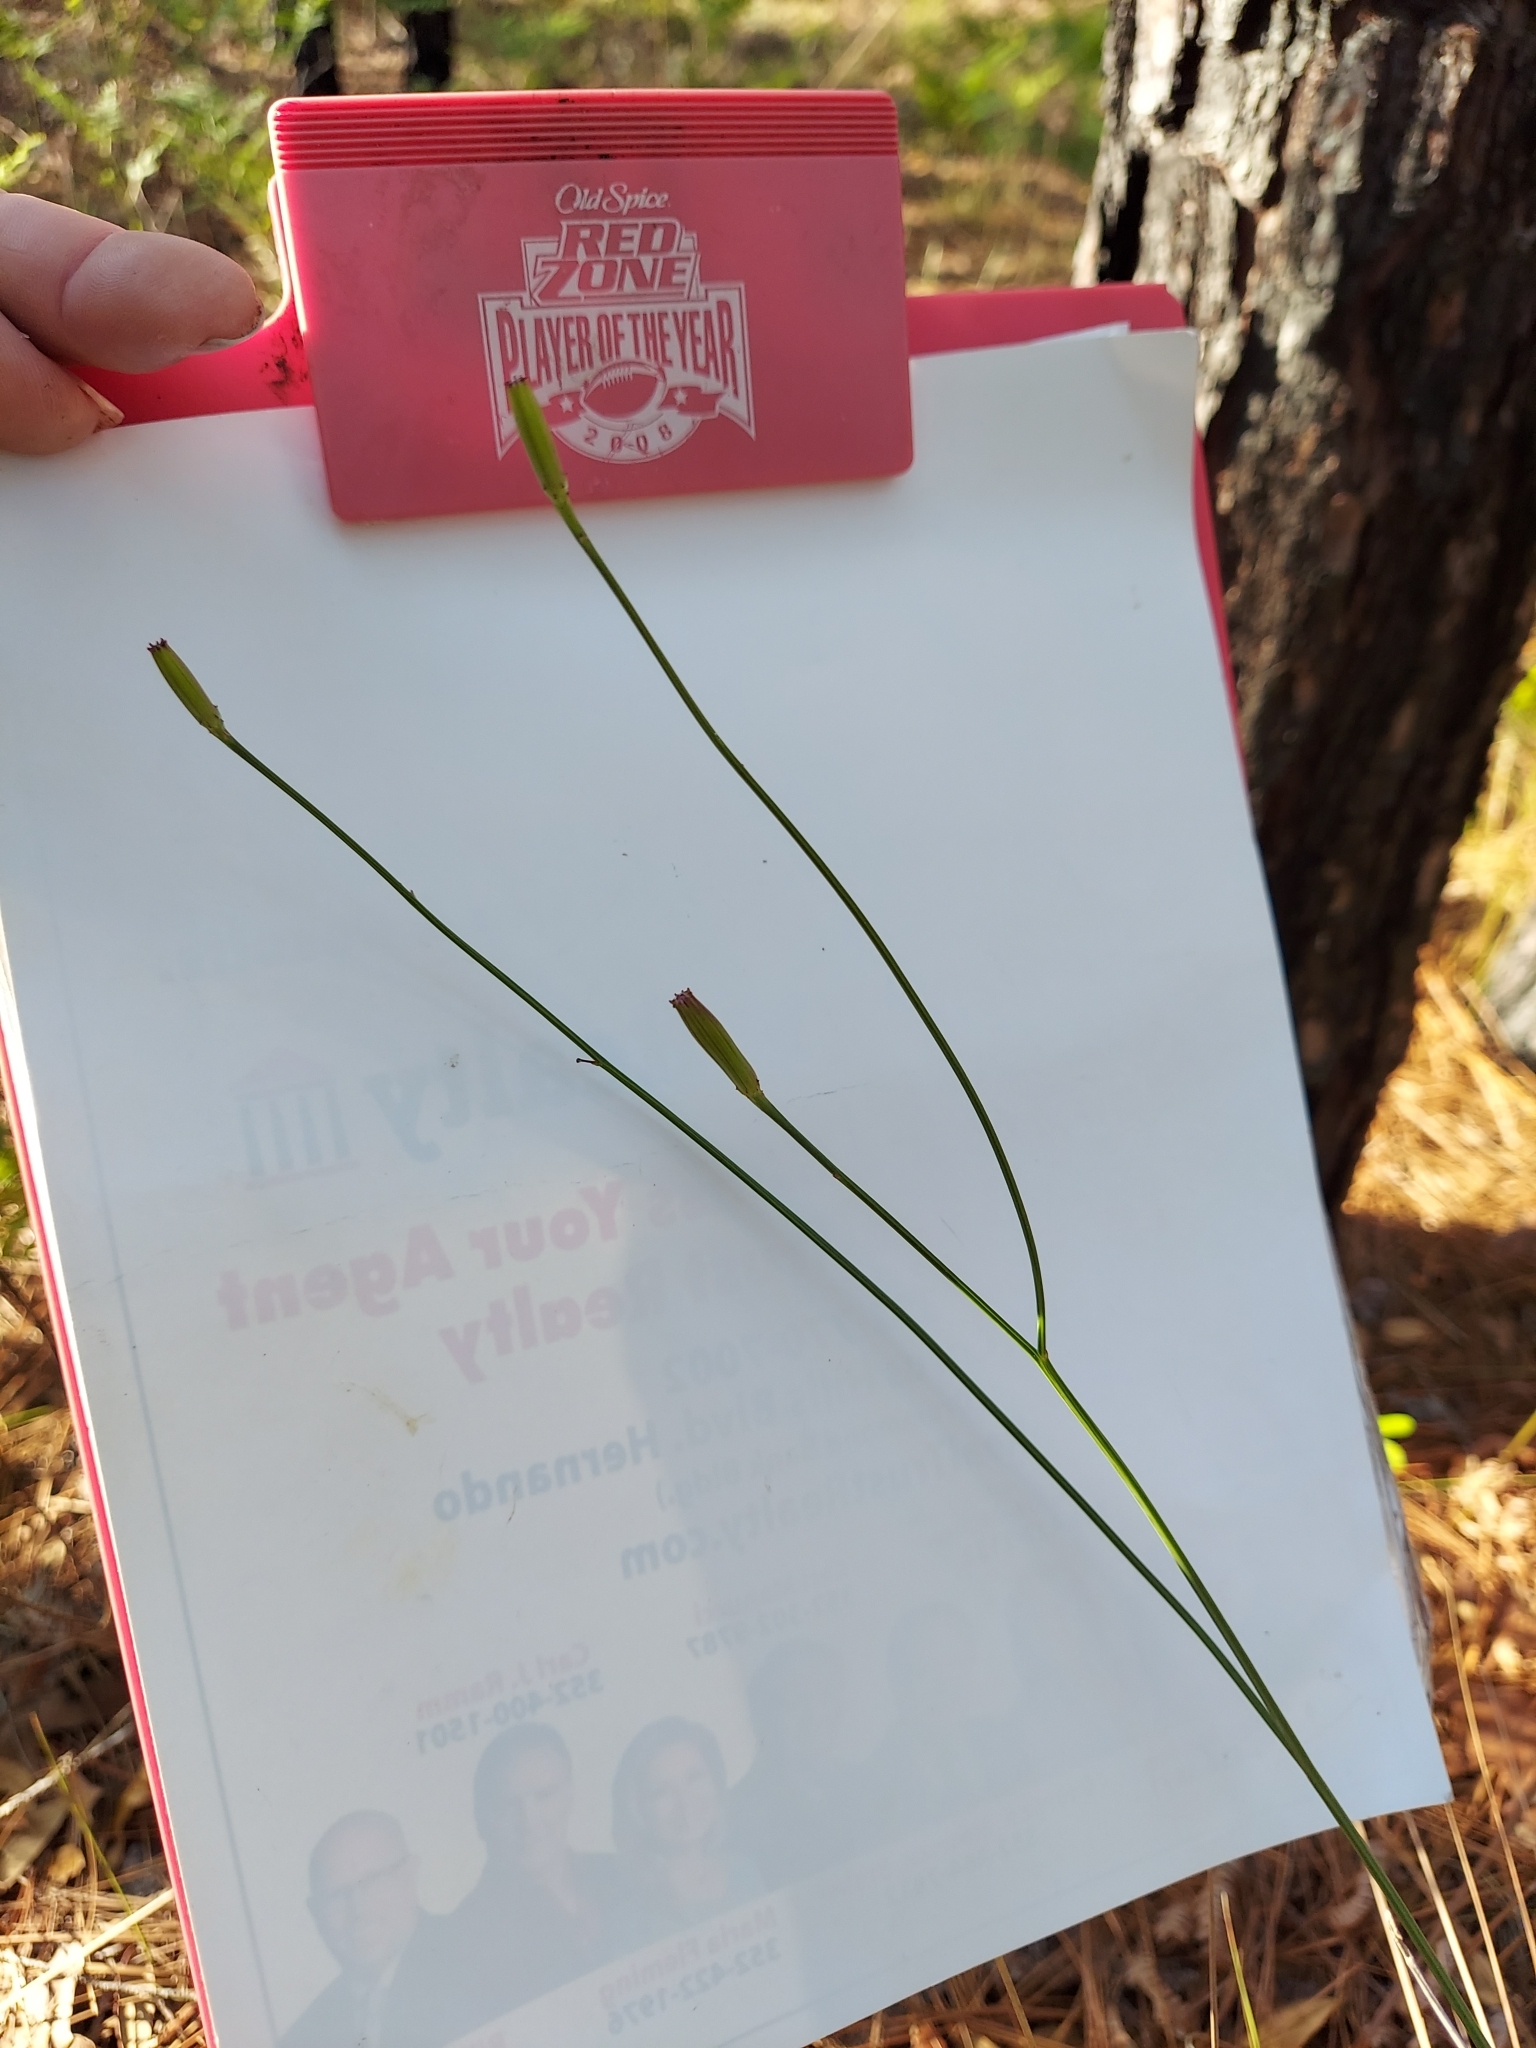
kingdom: Plantae
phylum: Tracheophyta
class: Magnoliopsida
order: Asterales
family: Asteraceae
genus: Lygodesmia
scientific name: Lygodesmia aphylla
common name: Rose-rush
